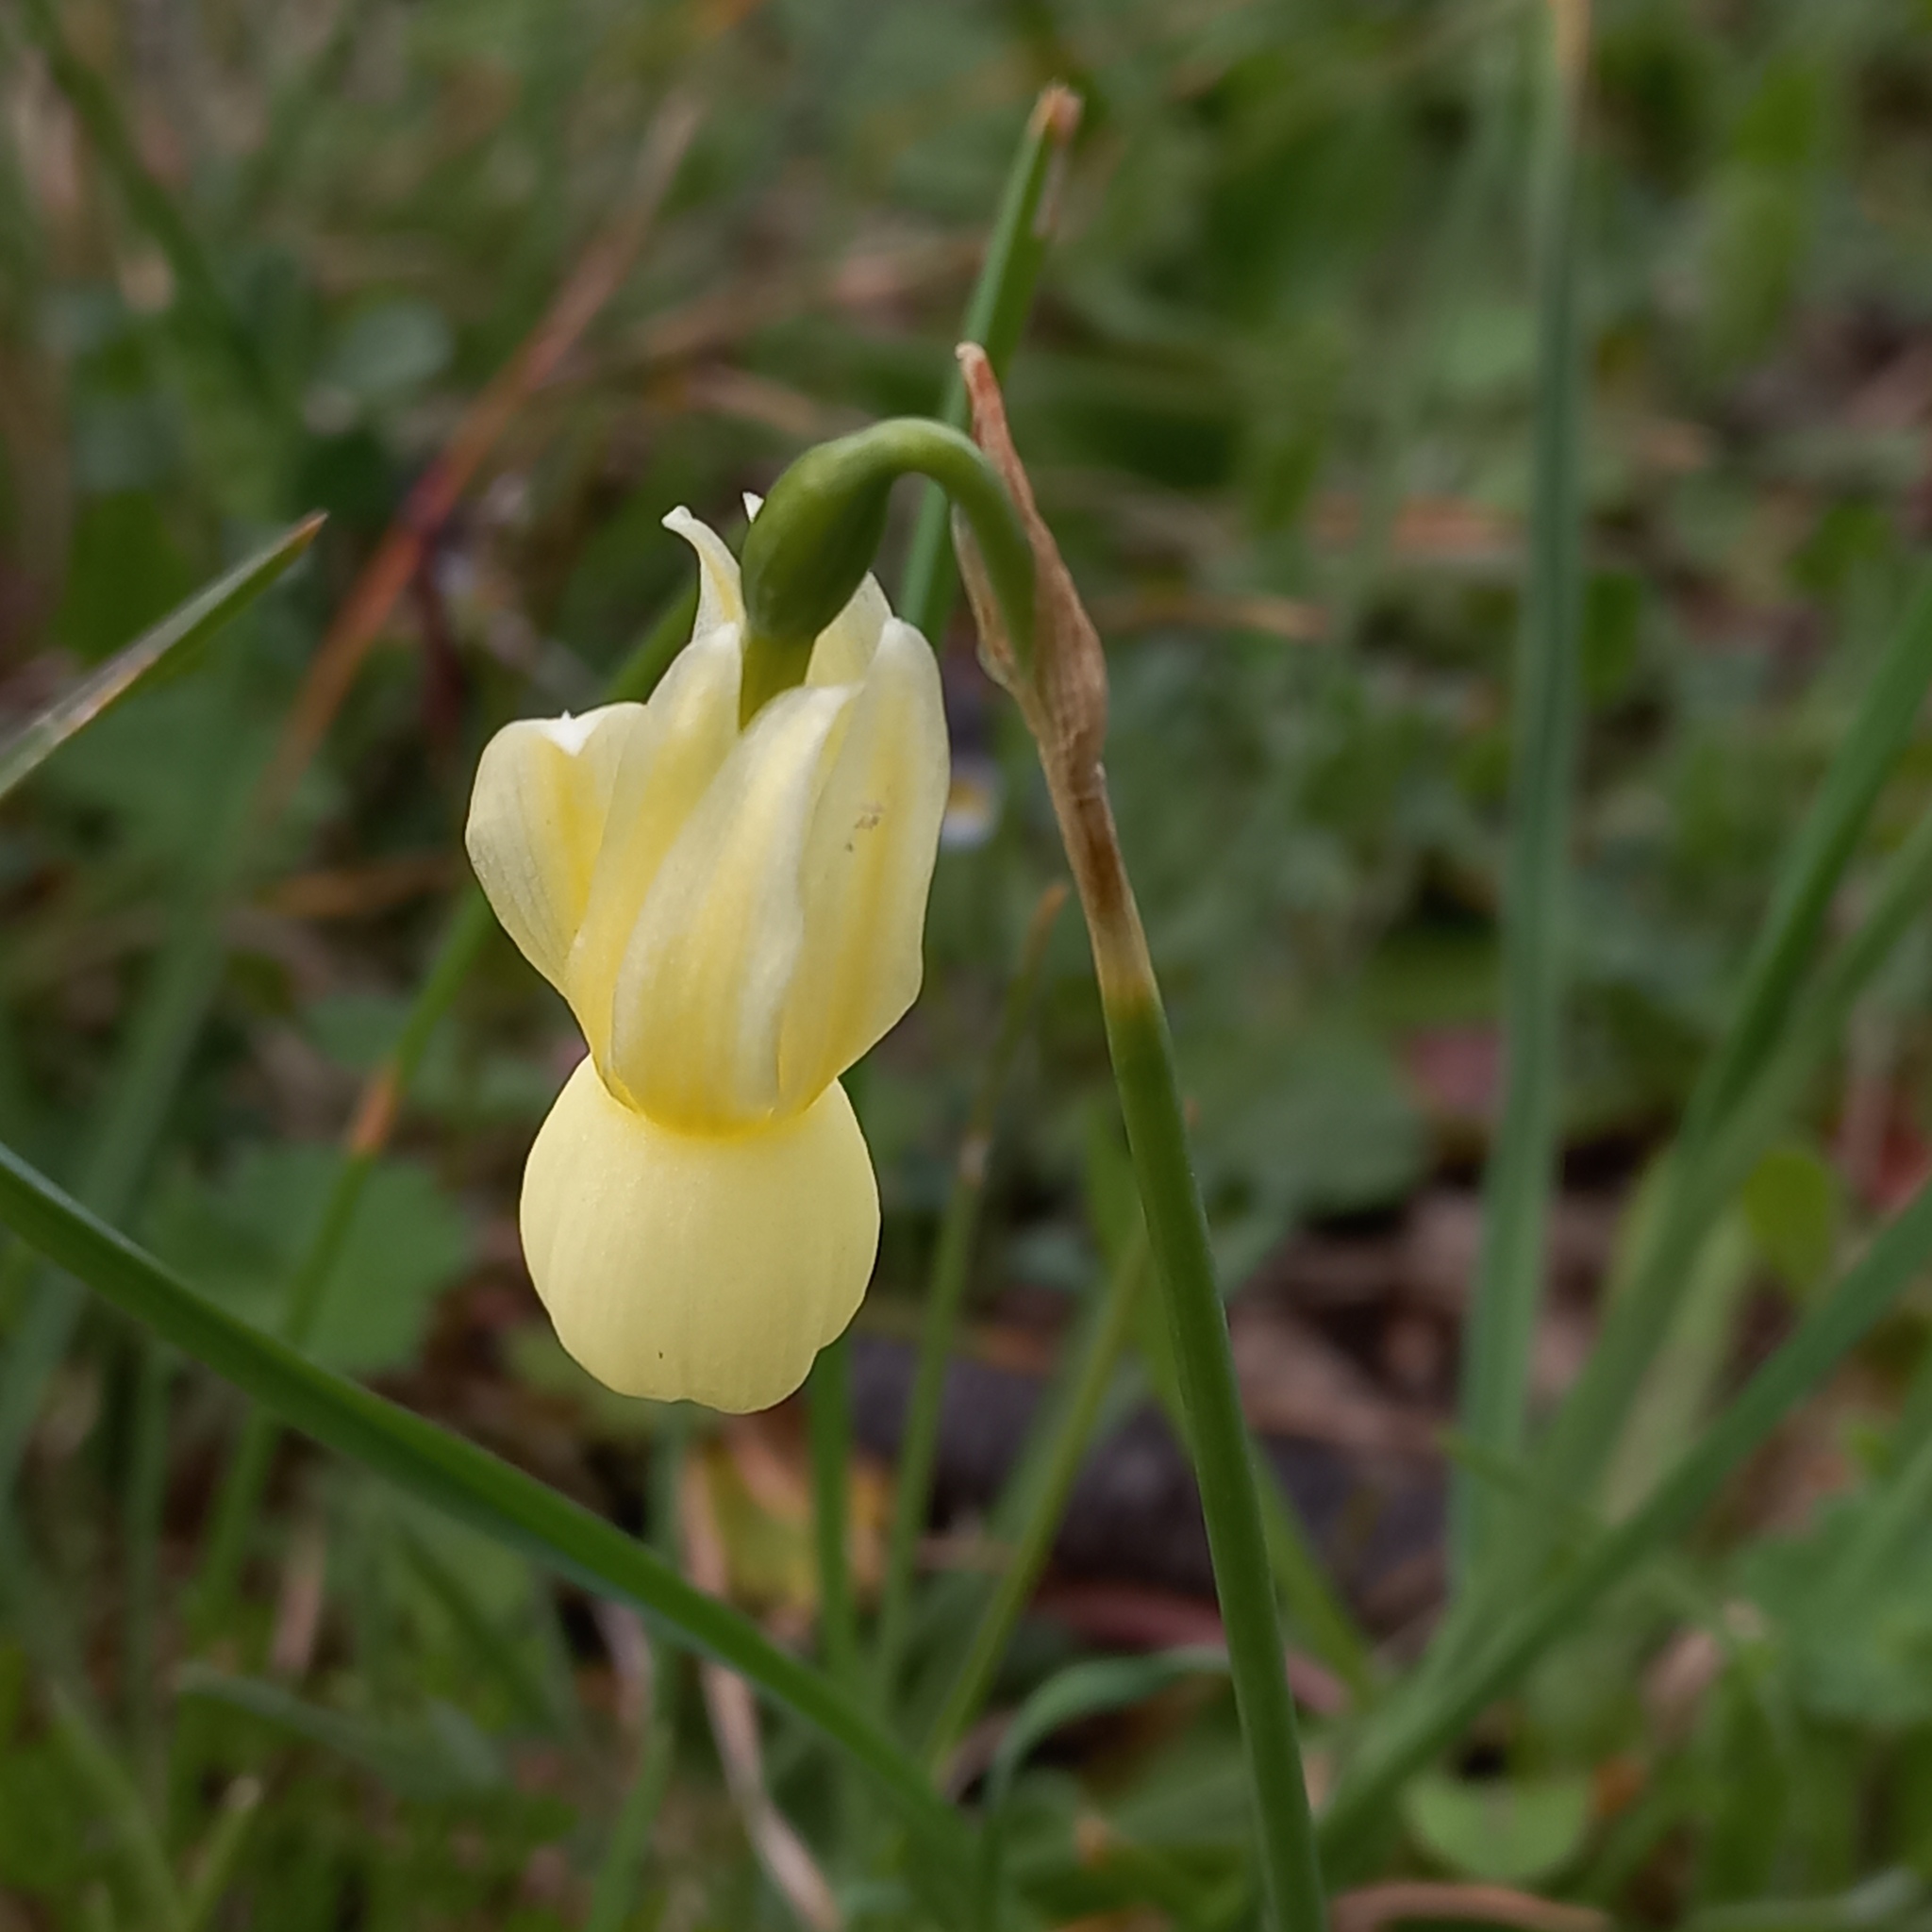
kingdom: Plantae
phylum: Tracheophyta
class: Liliopsida
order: Asparagales
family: Amaryllidaceae
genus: Narcissus
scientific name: Narcissus triandrus
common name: Angel's-tears
